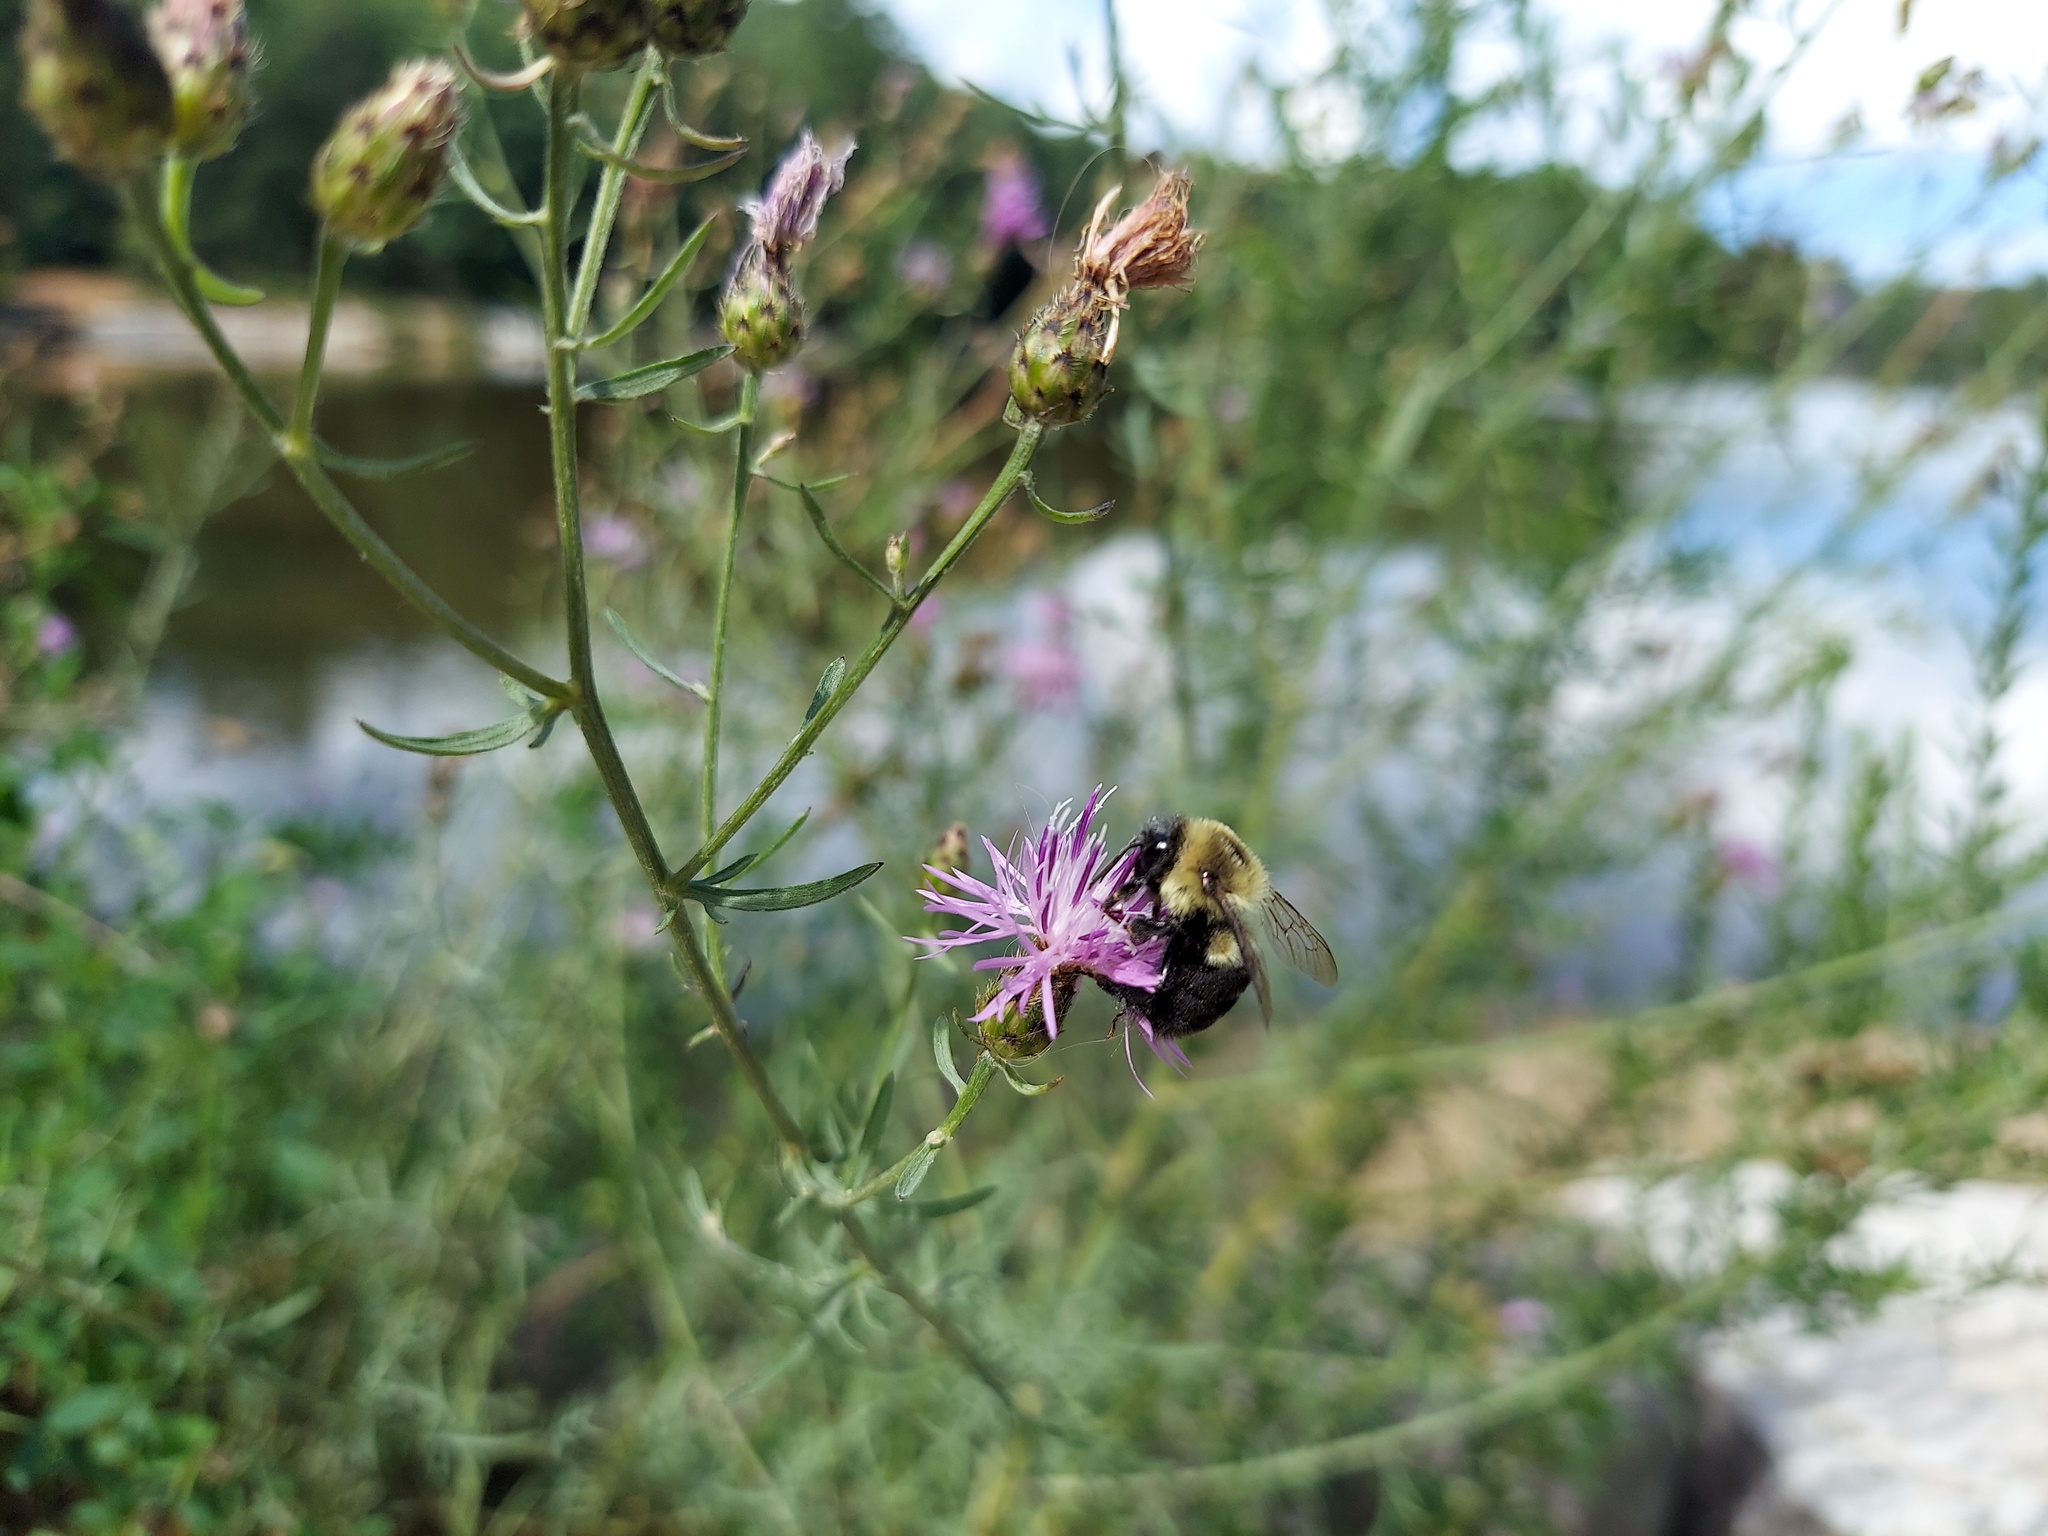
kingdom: Animalia
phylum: Arthropoda
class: Insecta
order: Hymenoptera
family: Apidae
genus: Bombus
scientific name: Bombus impatiens
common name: Common eastern bumble bee
